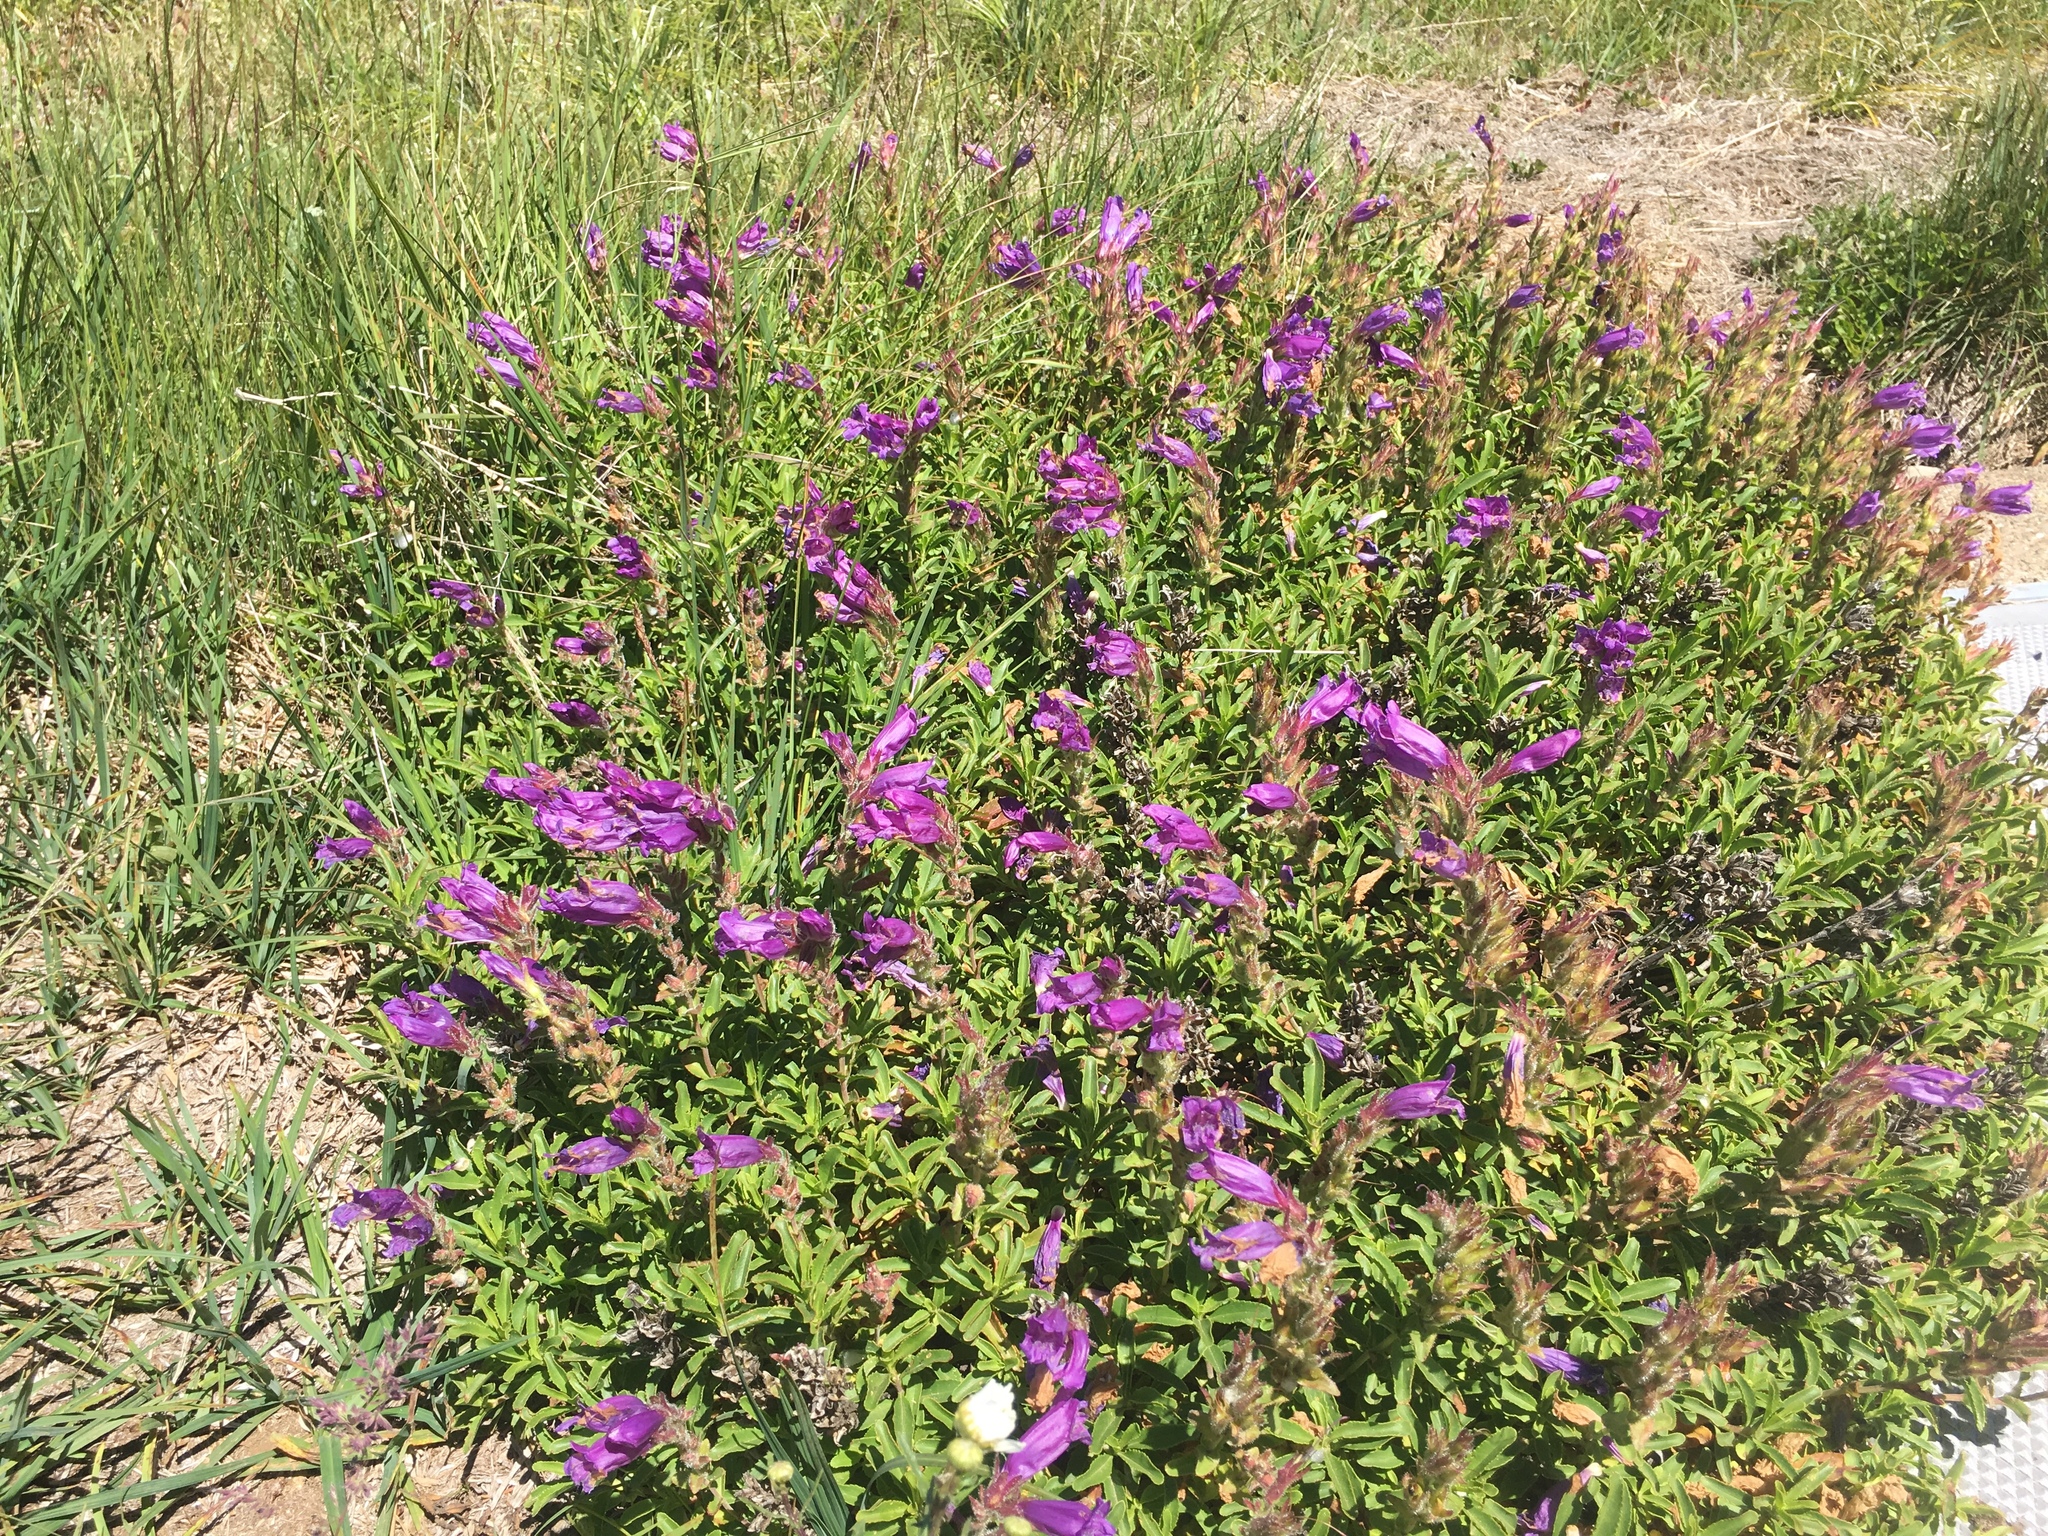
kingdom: Plantae
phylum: Tracheophyta
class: Magnoliopsida
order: Lamiales
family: Plantaginaceae
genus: Penstemon
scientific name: Penstemon cardwellii
